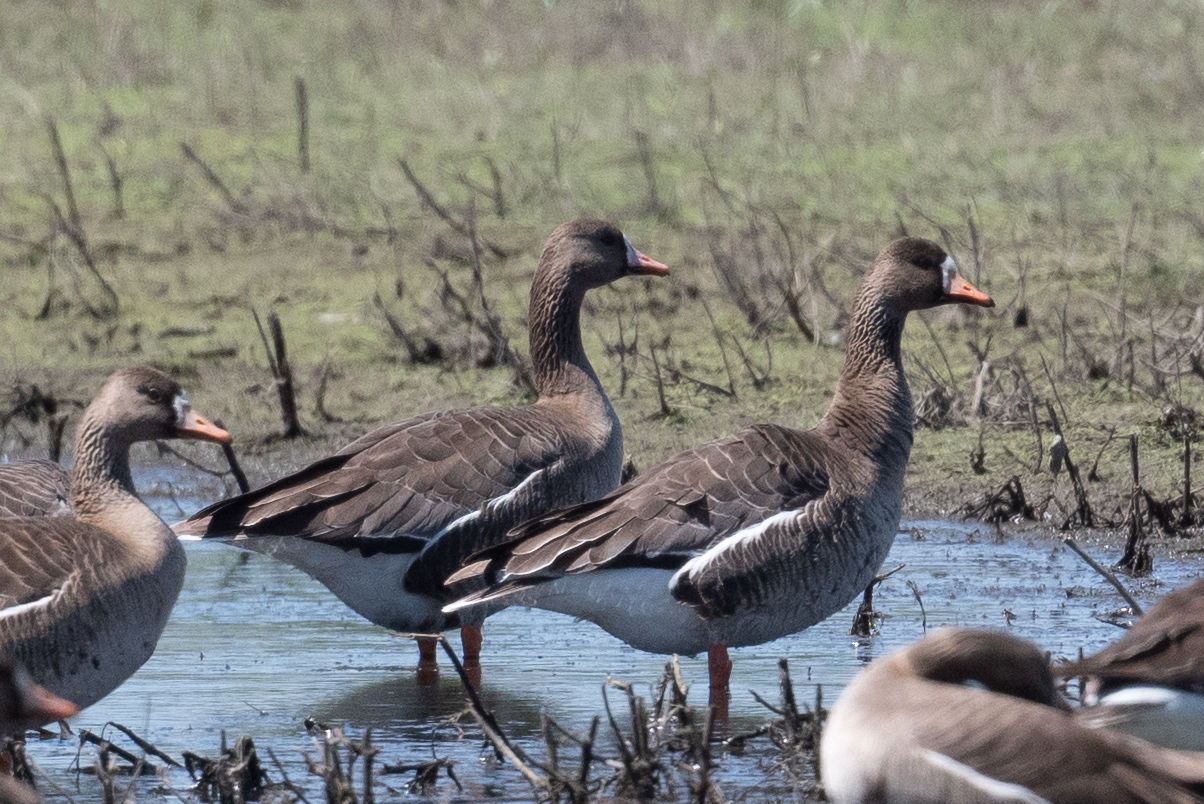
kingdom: Animalia
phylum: Chordata
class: Aves
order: Anseriformes
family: Anatidae
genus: Anser
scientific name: Anser albifrons
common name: Greater white-fronted goose
